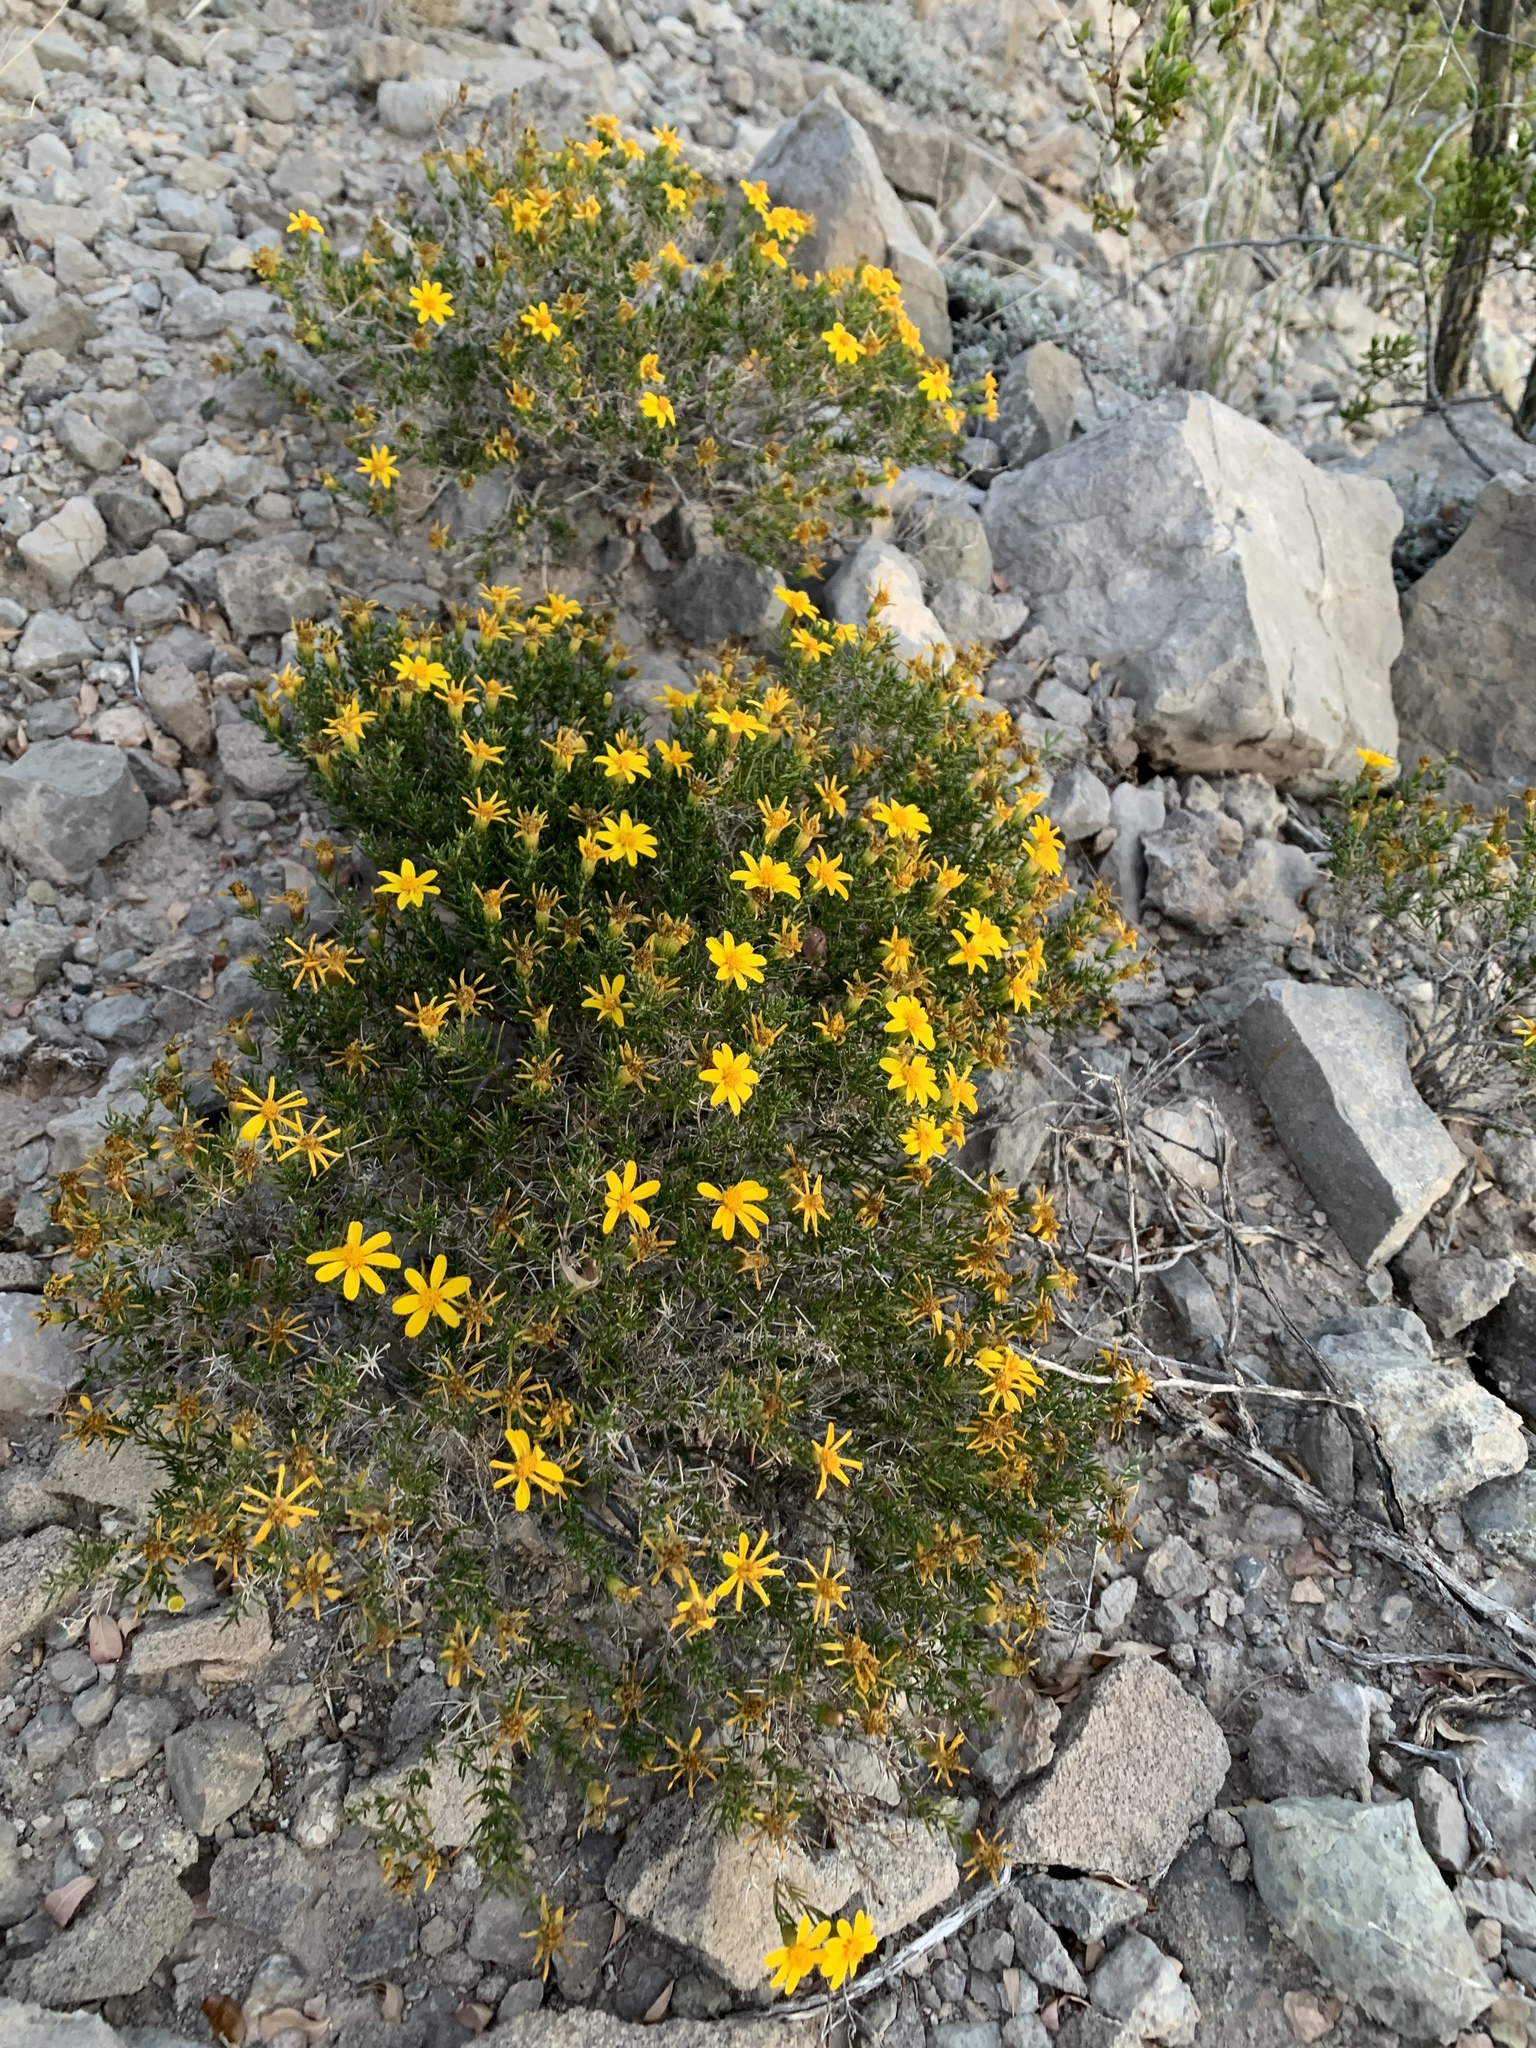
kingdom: Plantae
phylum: Tracheophyta
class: Magnoliopsida
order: Asterales
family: Asteraceae
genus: Thymophylla
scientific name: Thymophylla acerosa
